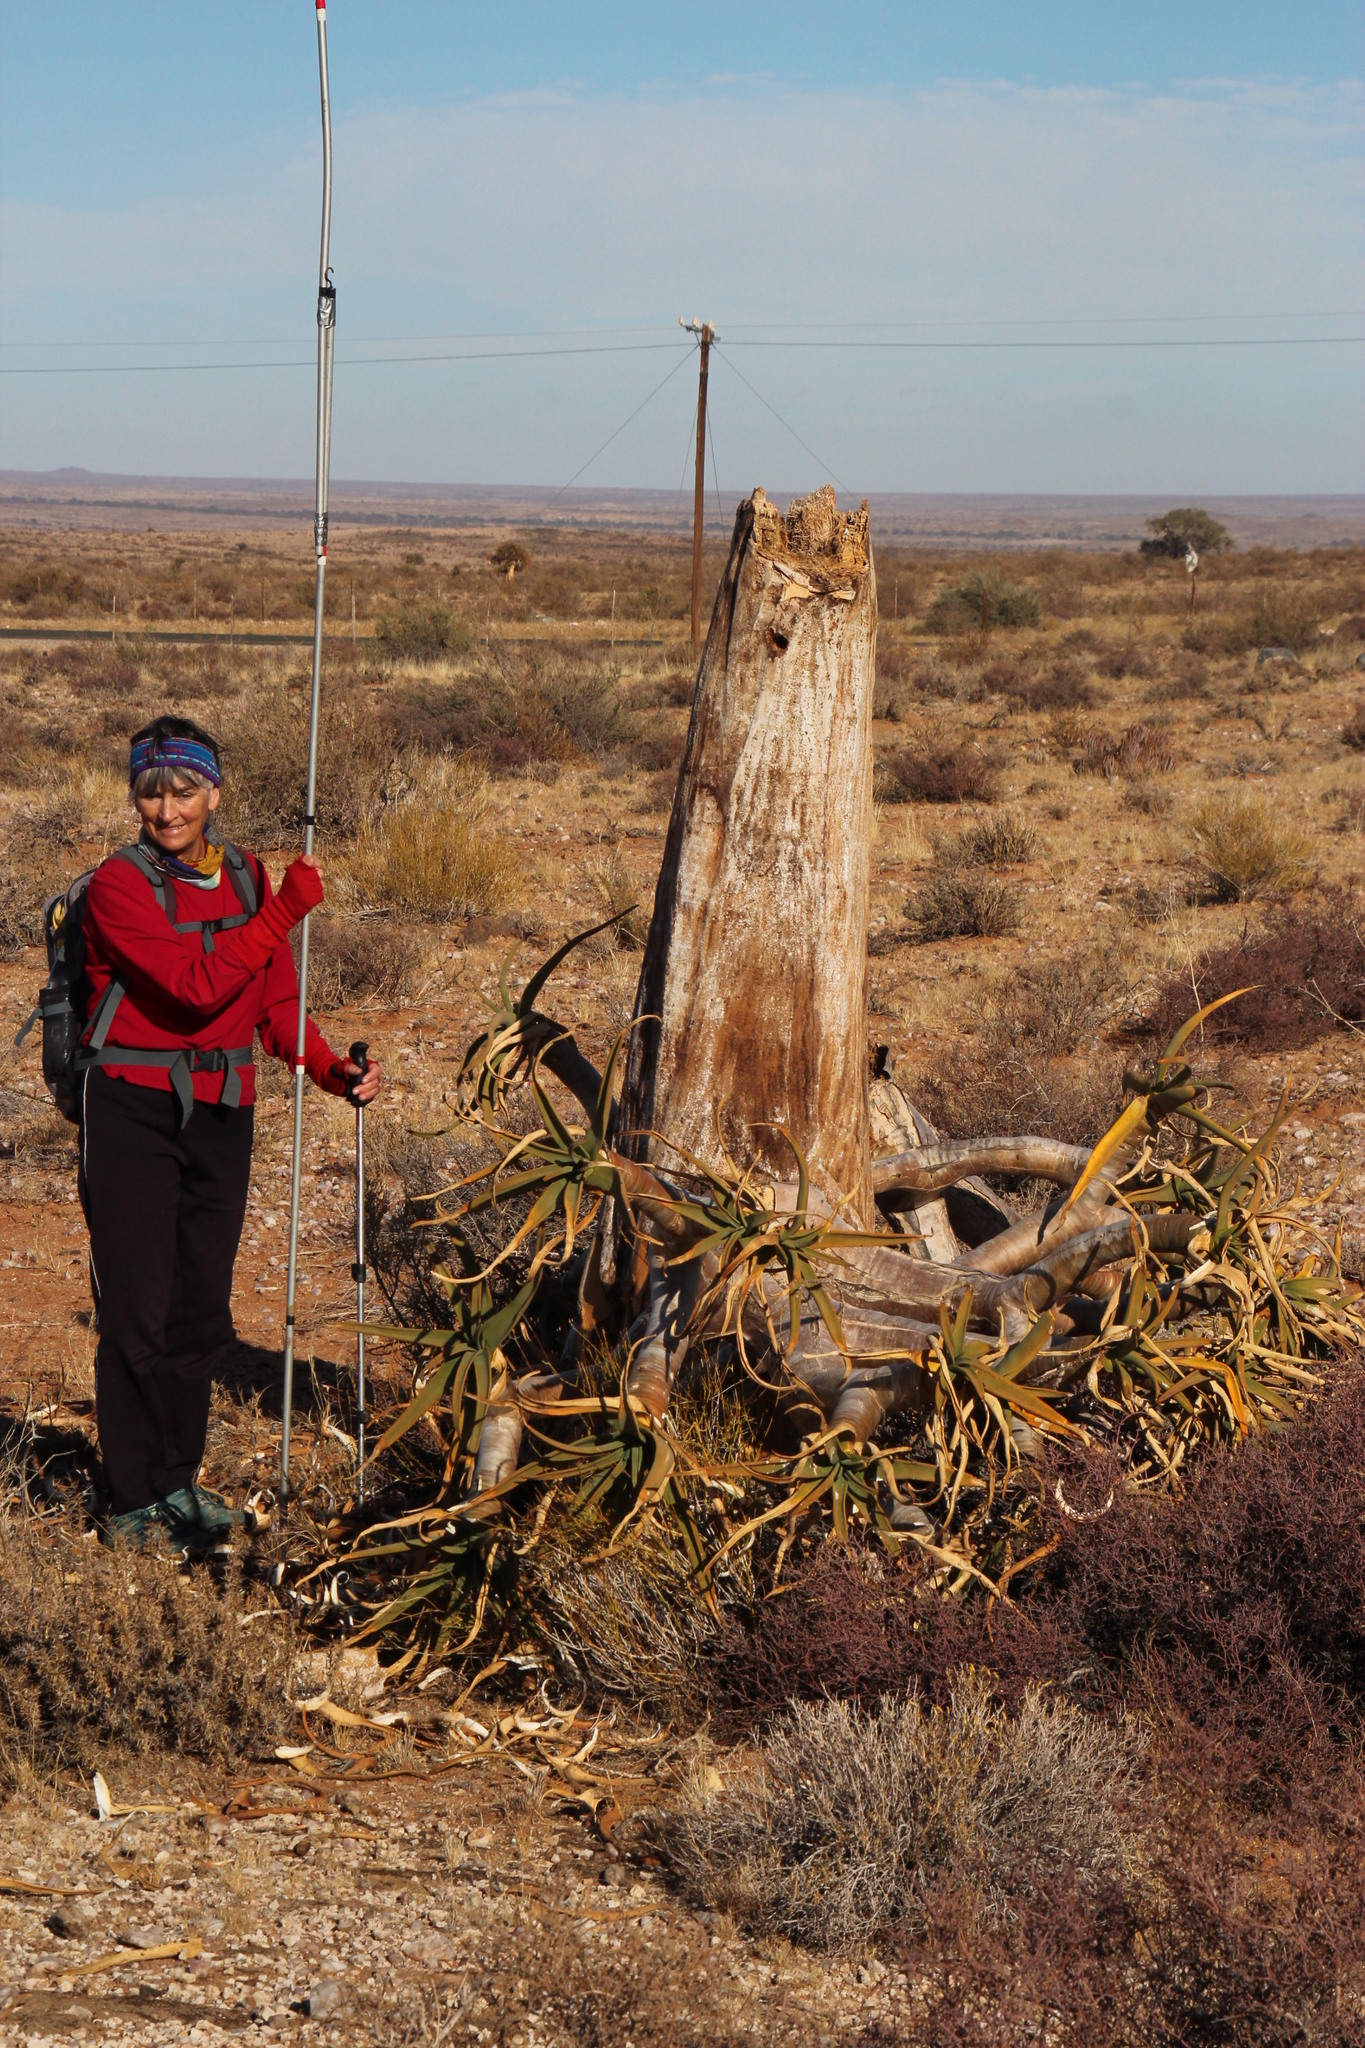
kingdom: Animalia
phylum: Chordata
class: Aves
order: Piciformes
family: Lybiidae
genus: Tricholaema
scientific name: Tricholaema leucomelas
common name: Acacia pied barbet
